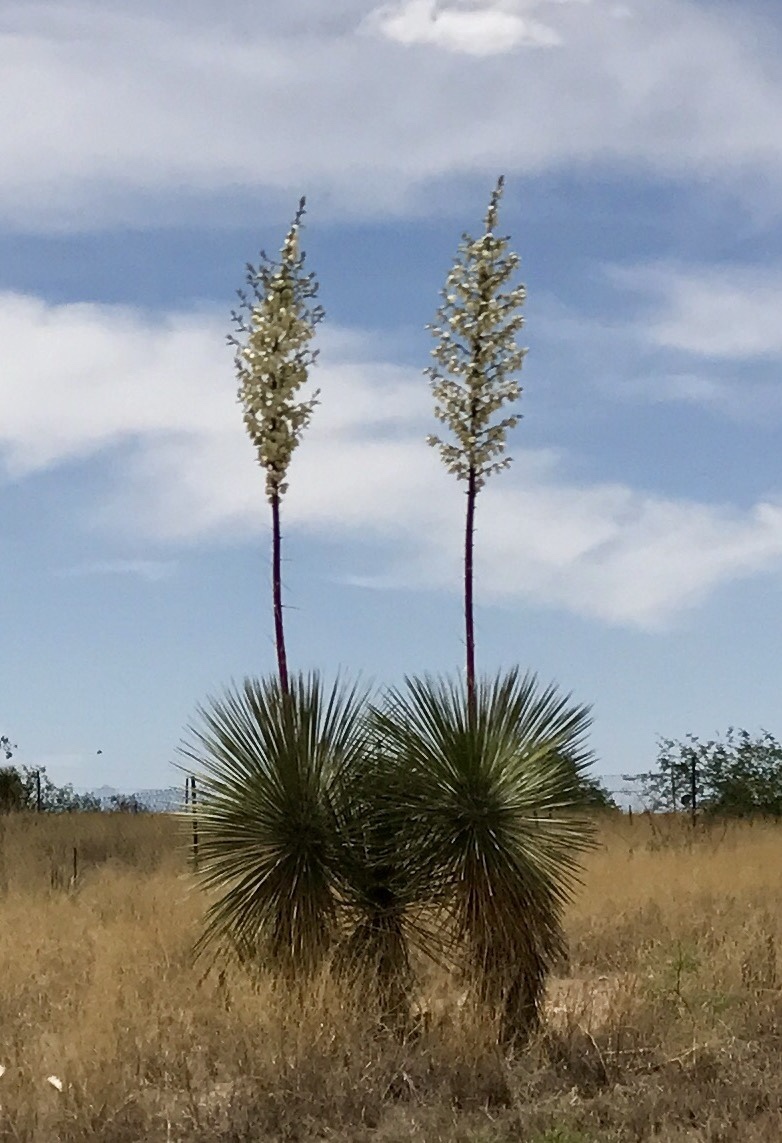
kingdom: Plantae
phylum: Tracheophyta
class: Liliopsida
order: Asparagales
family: Asparagaceae
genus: Yucca
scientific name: Yucca elata
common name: Palmella
